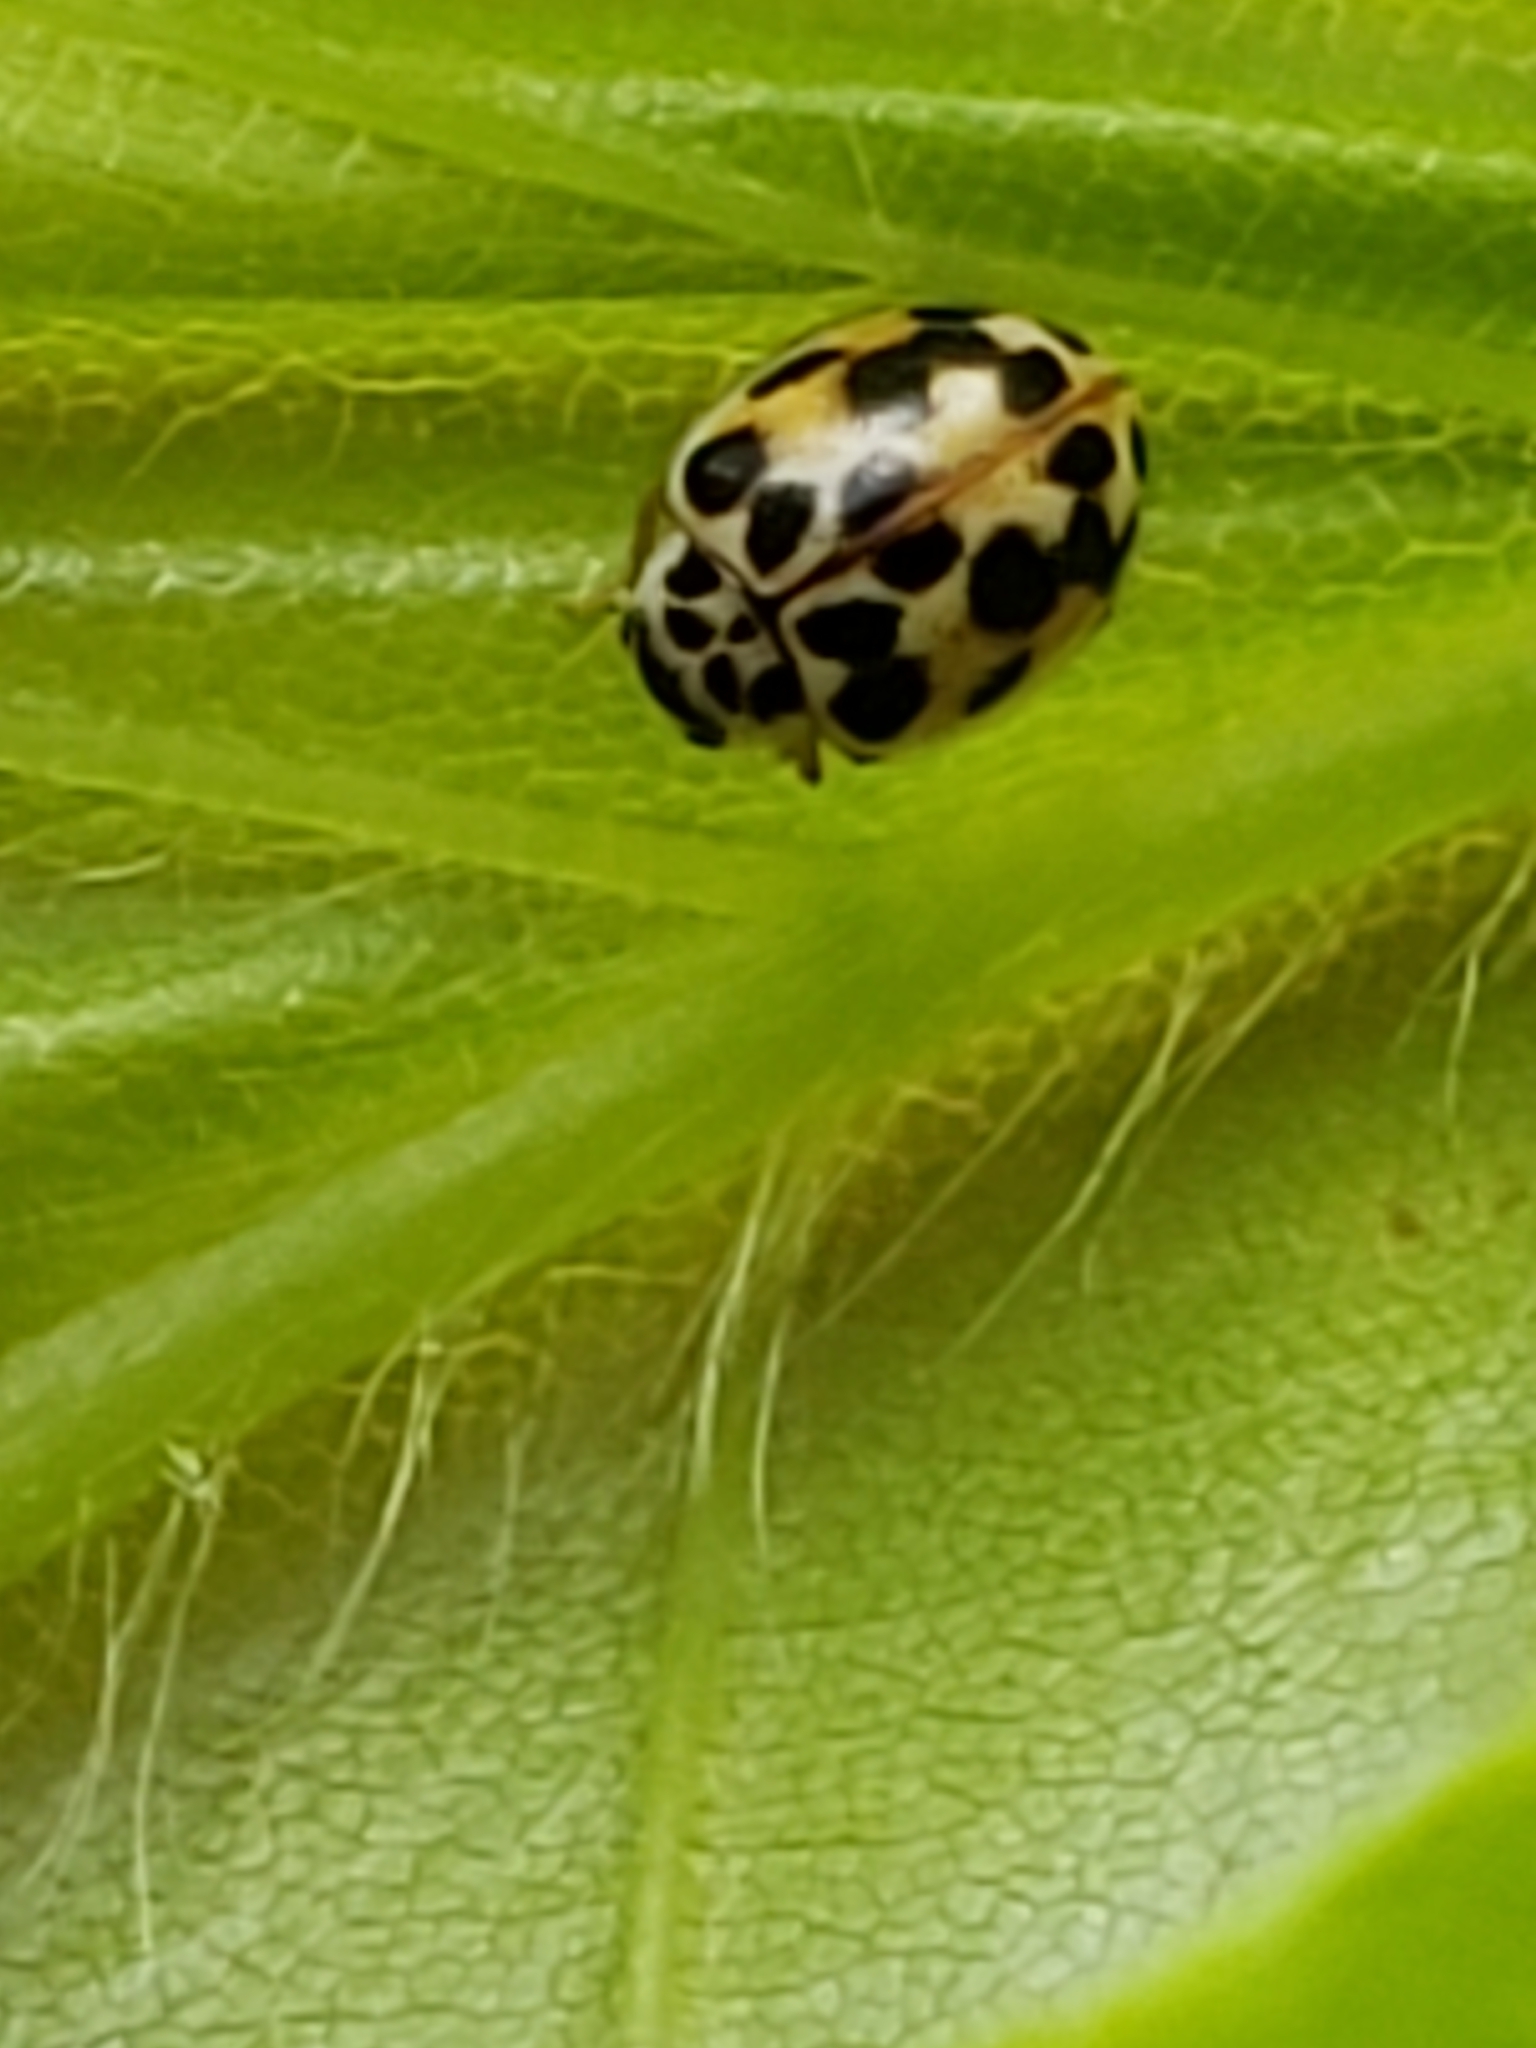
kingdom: Animalia
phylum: Arthropoda
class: Insecta
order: Coleoptera
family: Coccinellidae
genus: Psyllobora
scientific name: Psyllobora vigintimaculata
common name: Ladybird beetle
